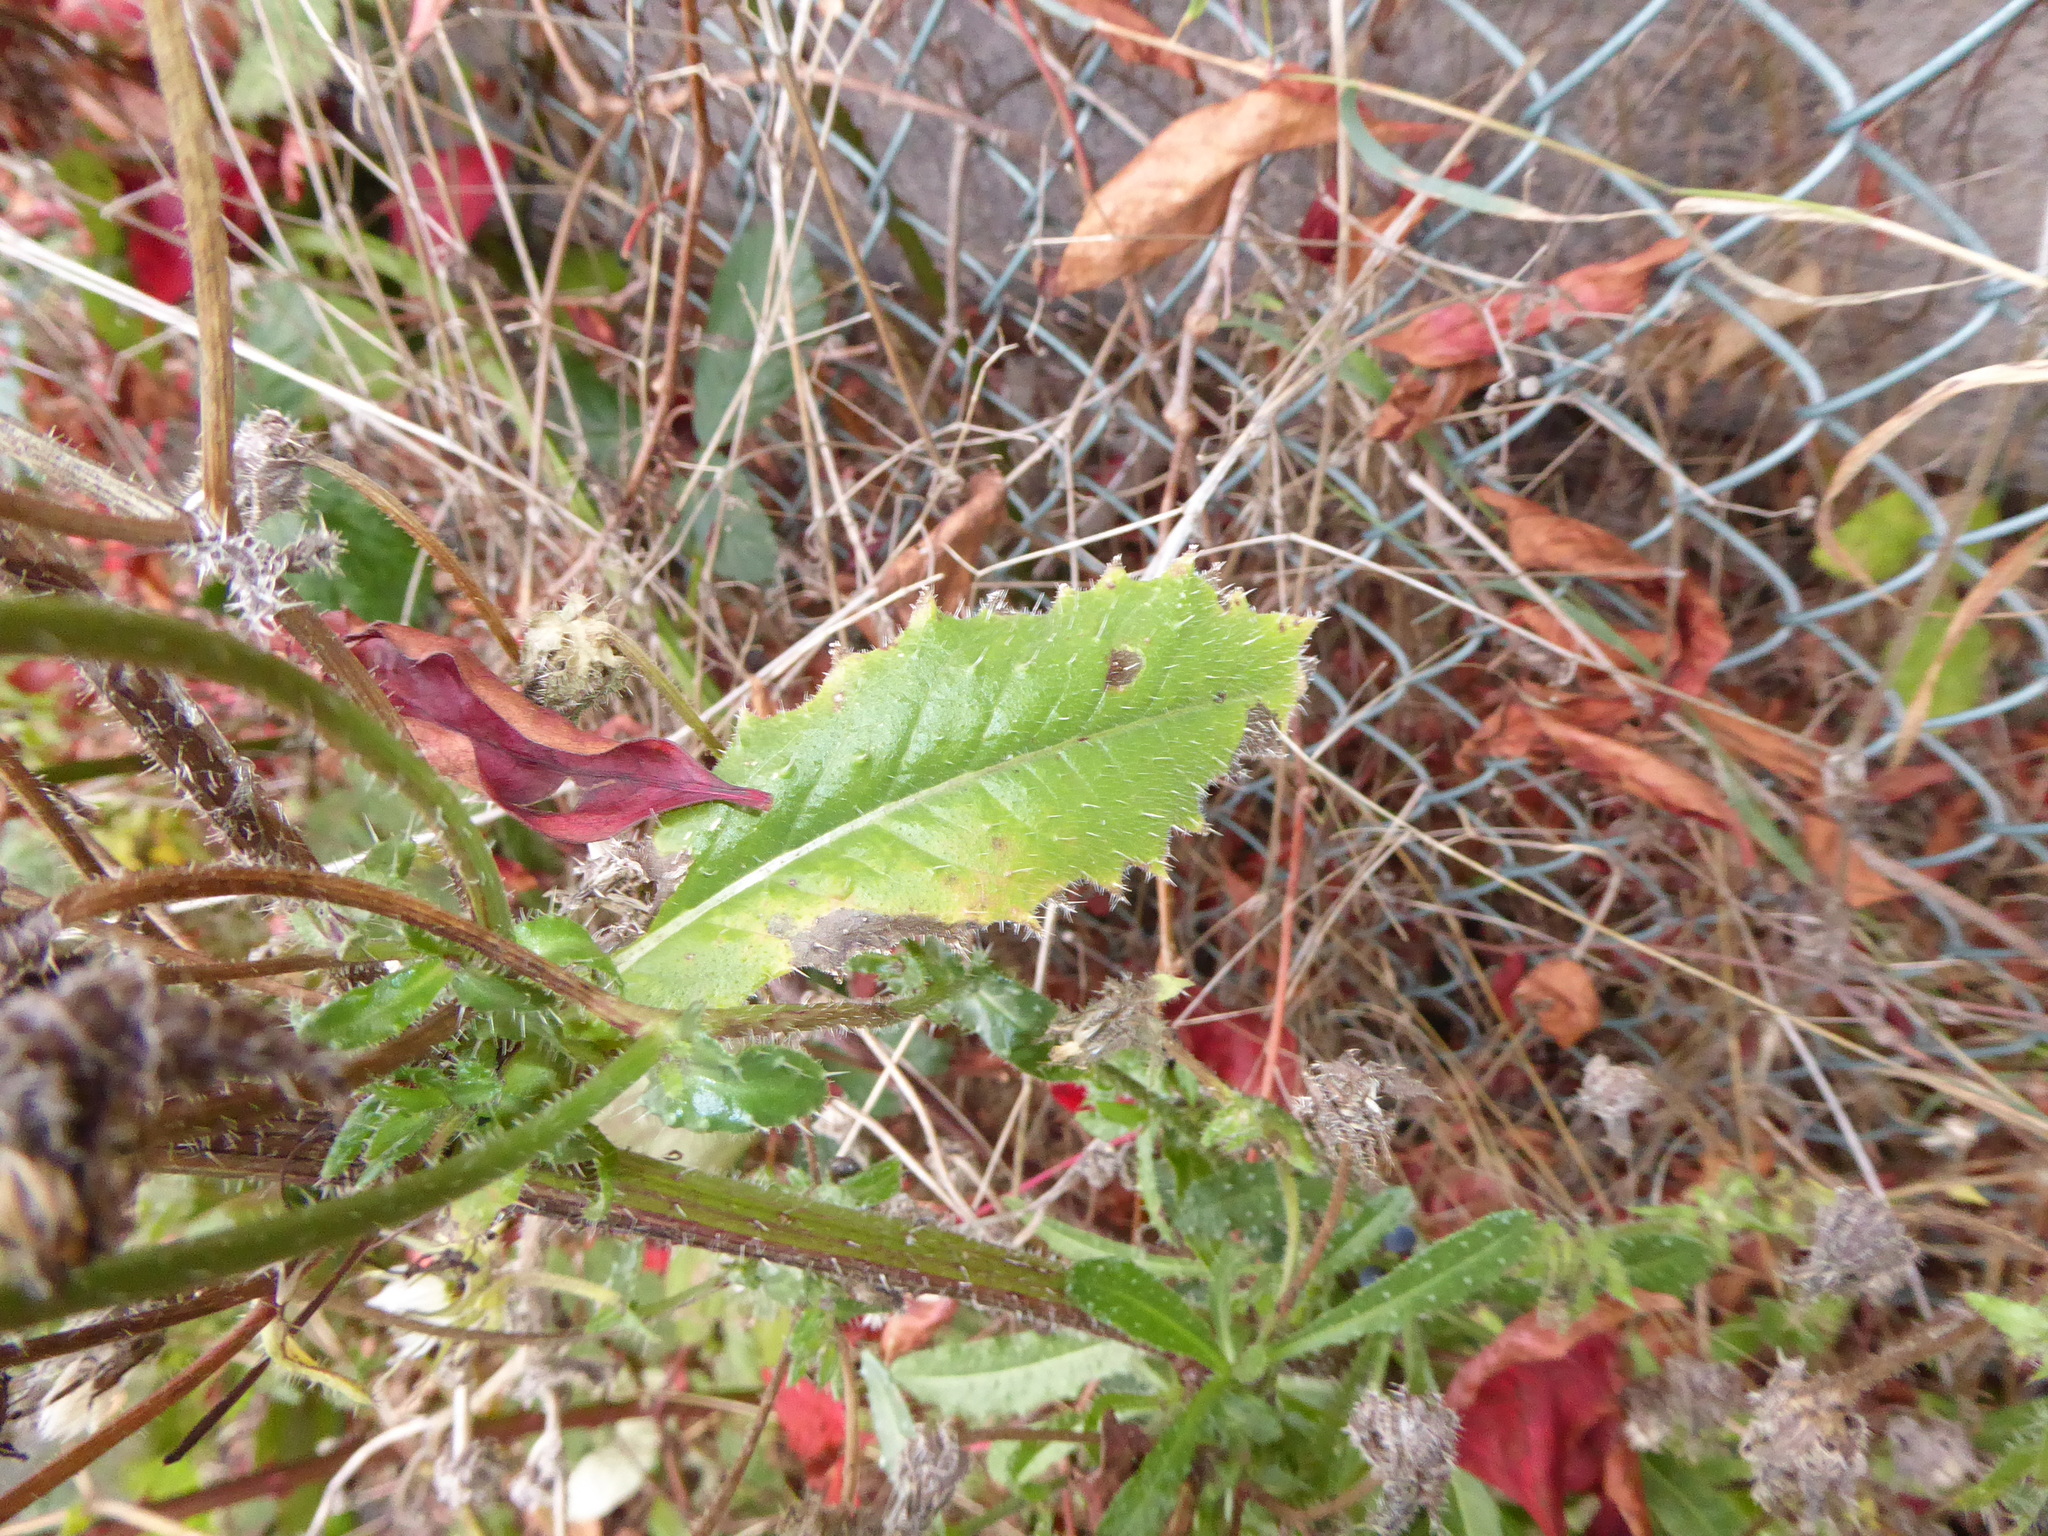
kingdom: Plantae
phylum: Tracheophyta
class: Magnoliopsida
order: Asterales
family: Asteraceae
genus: Helminthotheca
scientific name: Helminthotheca echioides
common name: Ox-tongue
